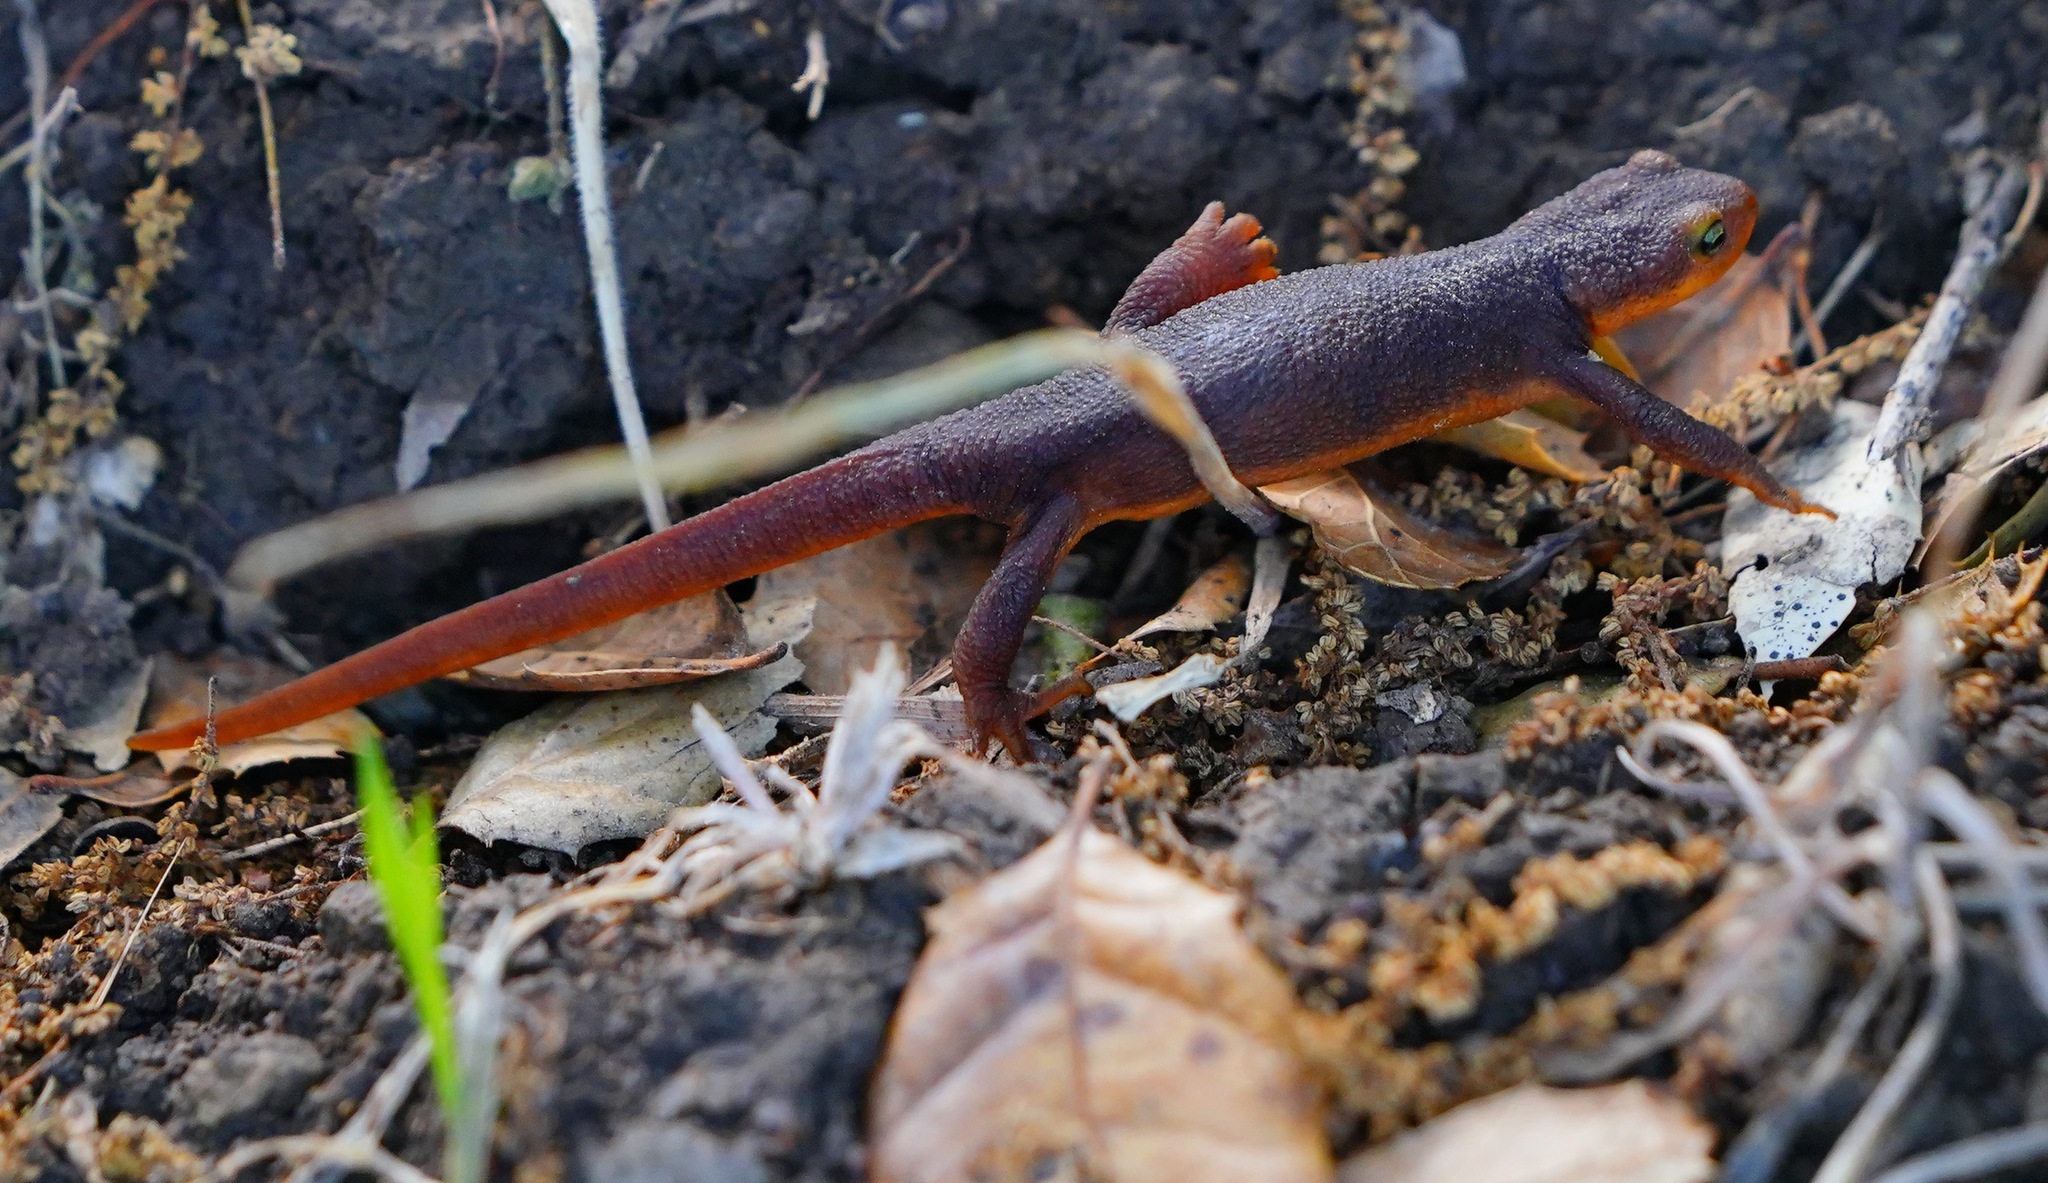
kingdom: Animalia
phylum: Chordata
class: Amphibia
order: Caudata
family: Salamandridae
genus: Taricha
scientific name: Taricha torosa
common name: California newt
